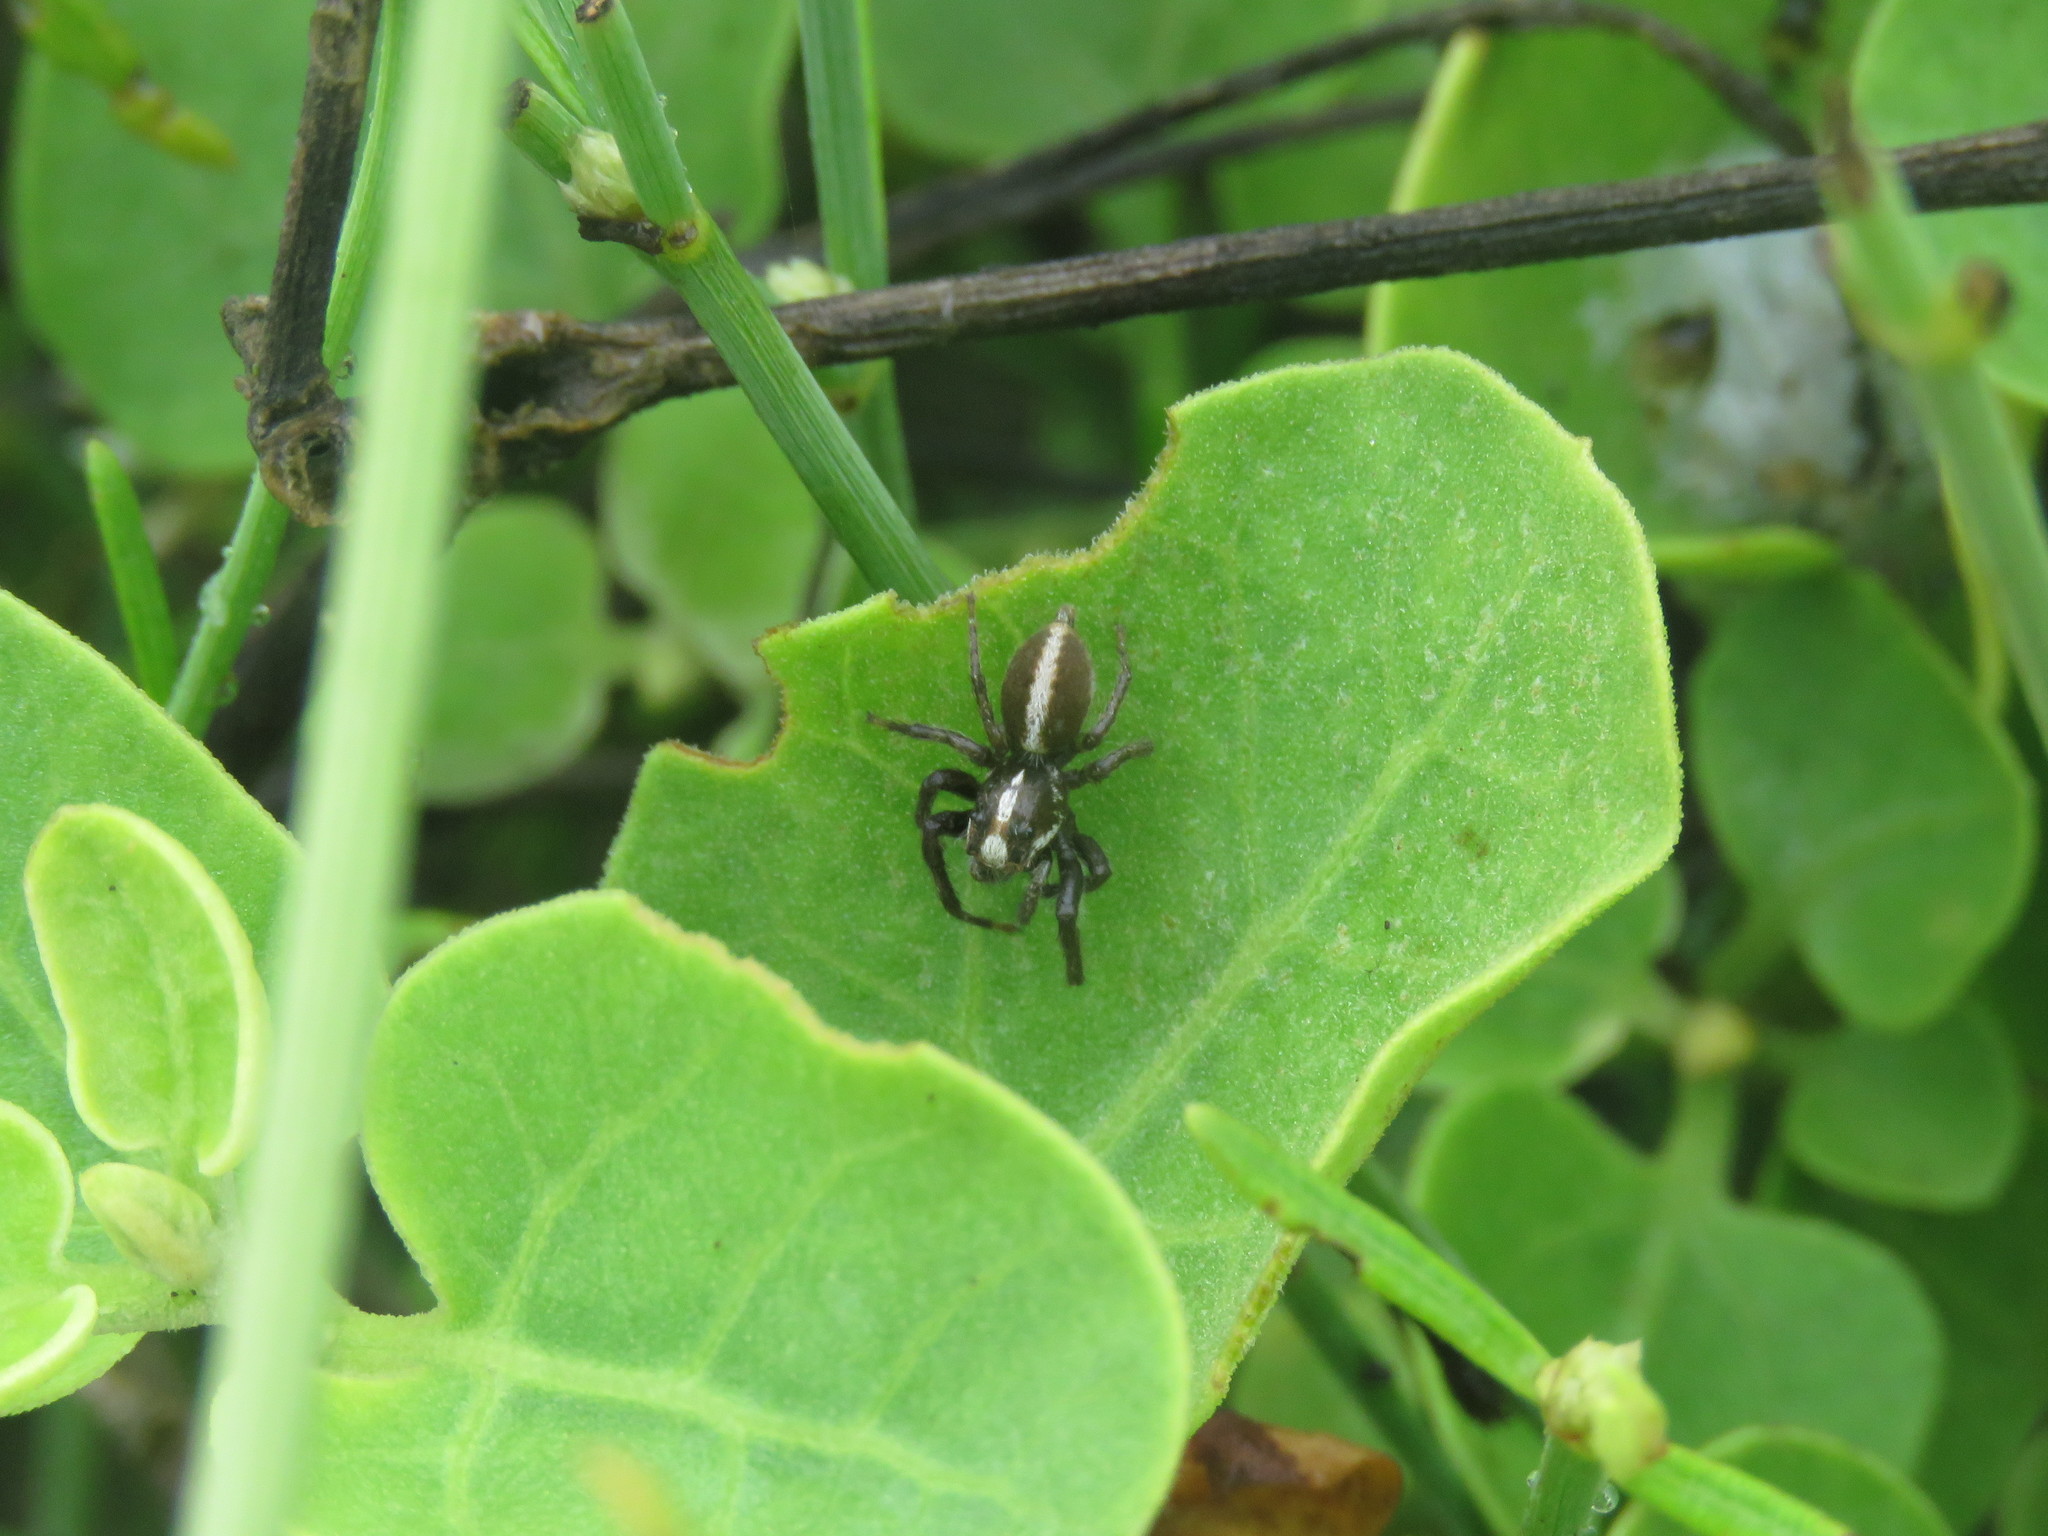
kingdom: Animalia
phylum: Arthropoda
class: Arachnida
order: Araneae
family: Salticidae
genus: Frigga
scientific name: Frigga crocuta
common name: Jumping spiders
